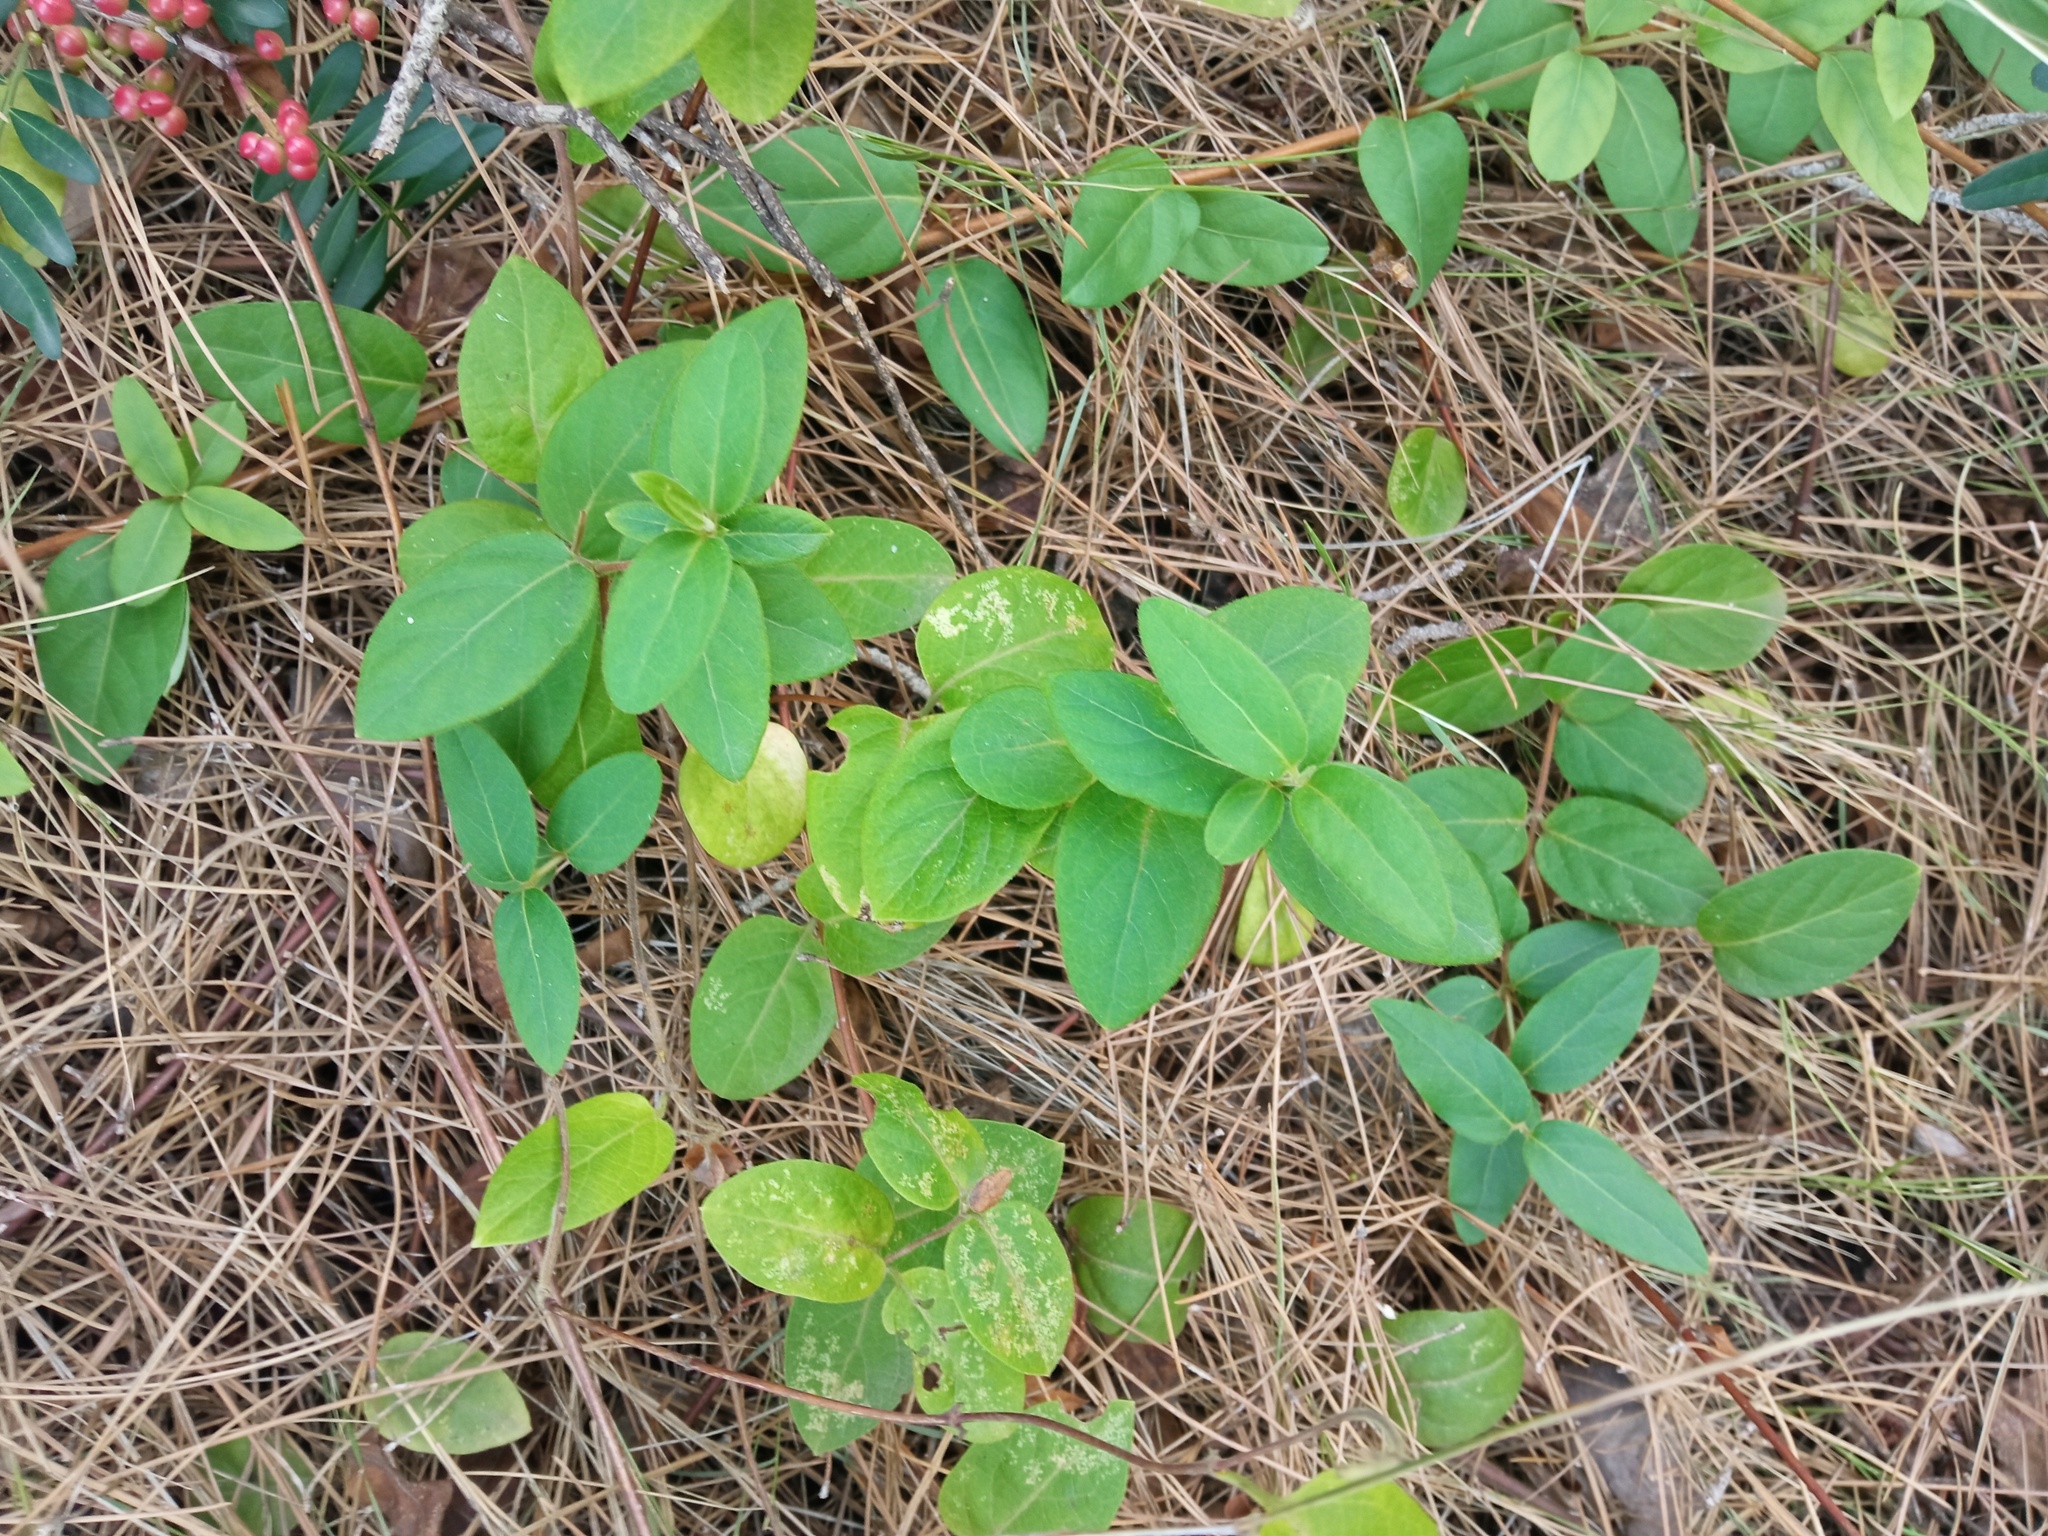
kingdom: Plantae
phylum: Tracheophyta
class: Magnoliopsida
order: Dipsacales
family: Caprifoliaceae
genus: Lonicera
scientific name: Lonicera japonica
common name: Japanese honeysuckle
